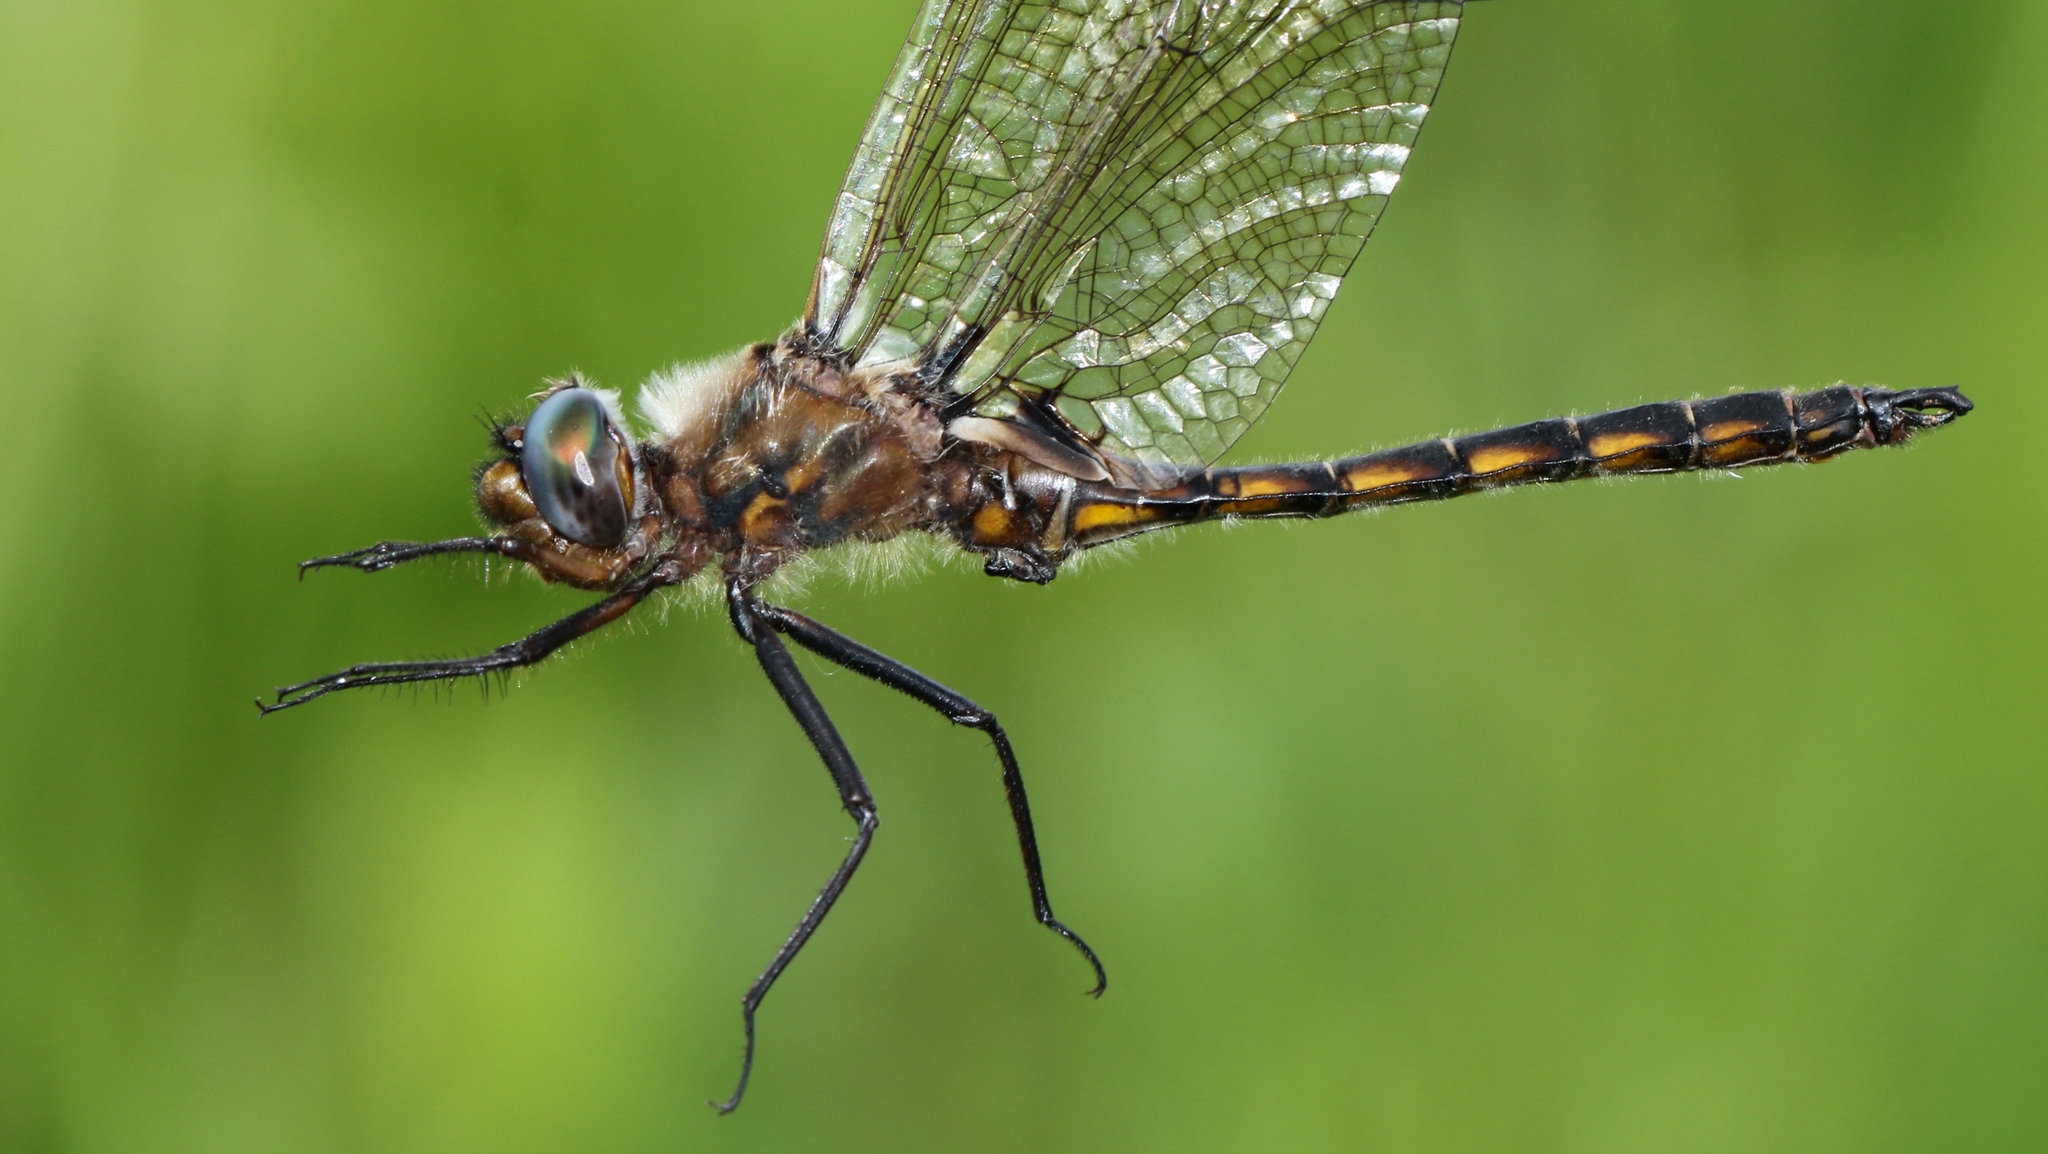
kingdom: Animalia
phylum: Arthropoda
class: Insecta
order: Odonata
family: Corduliidae
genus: Epitheca
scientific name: Epitheca canis
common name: Beaverpond baskettail
